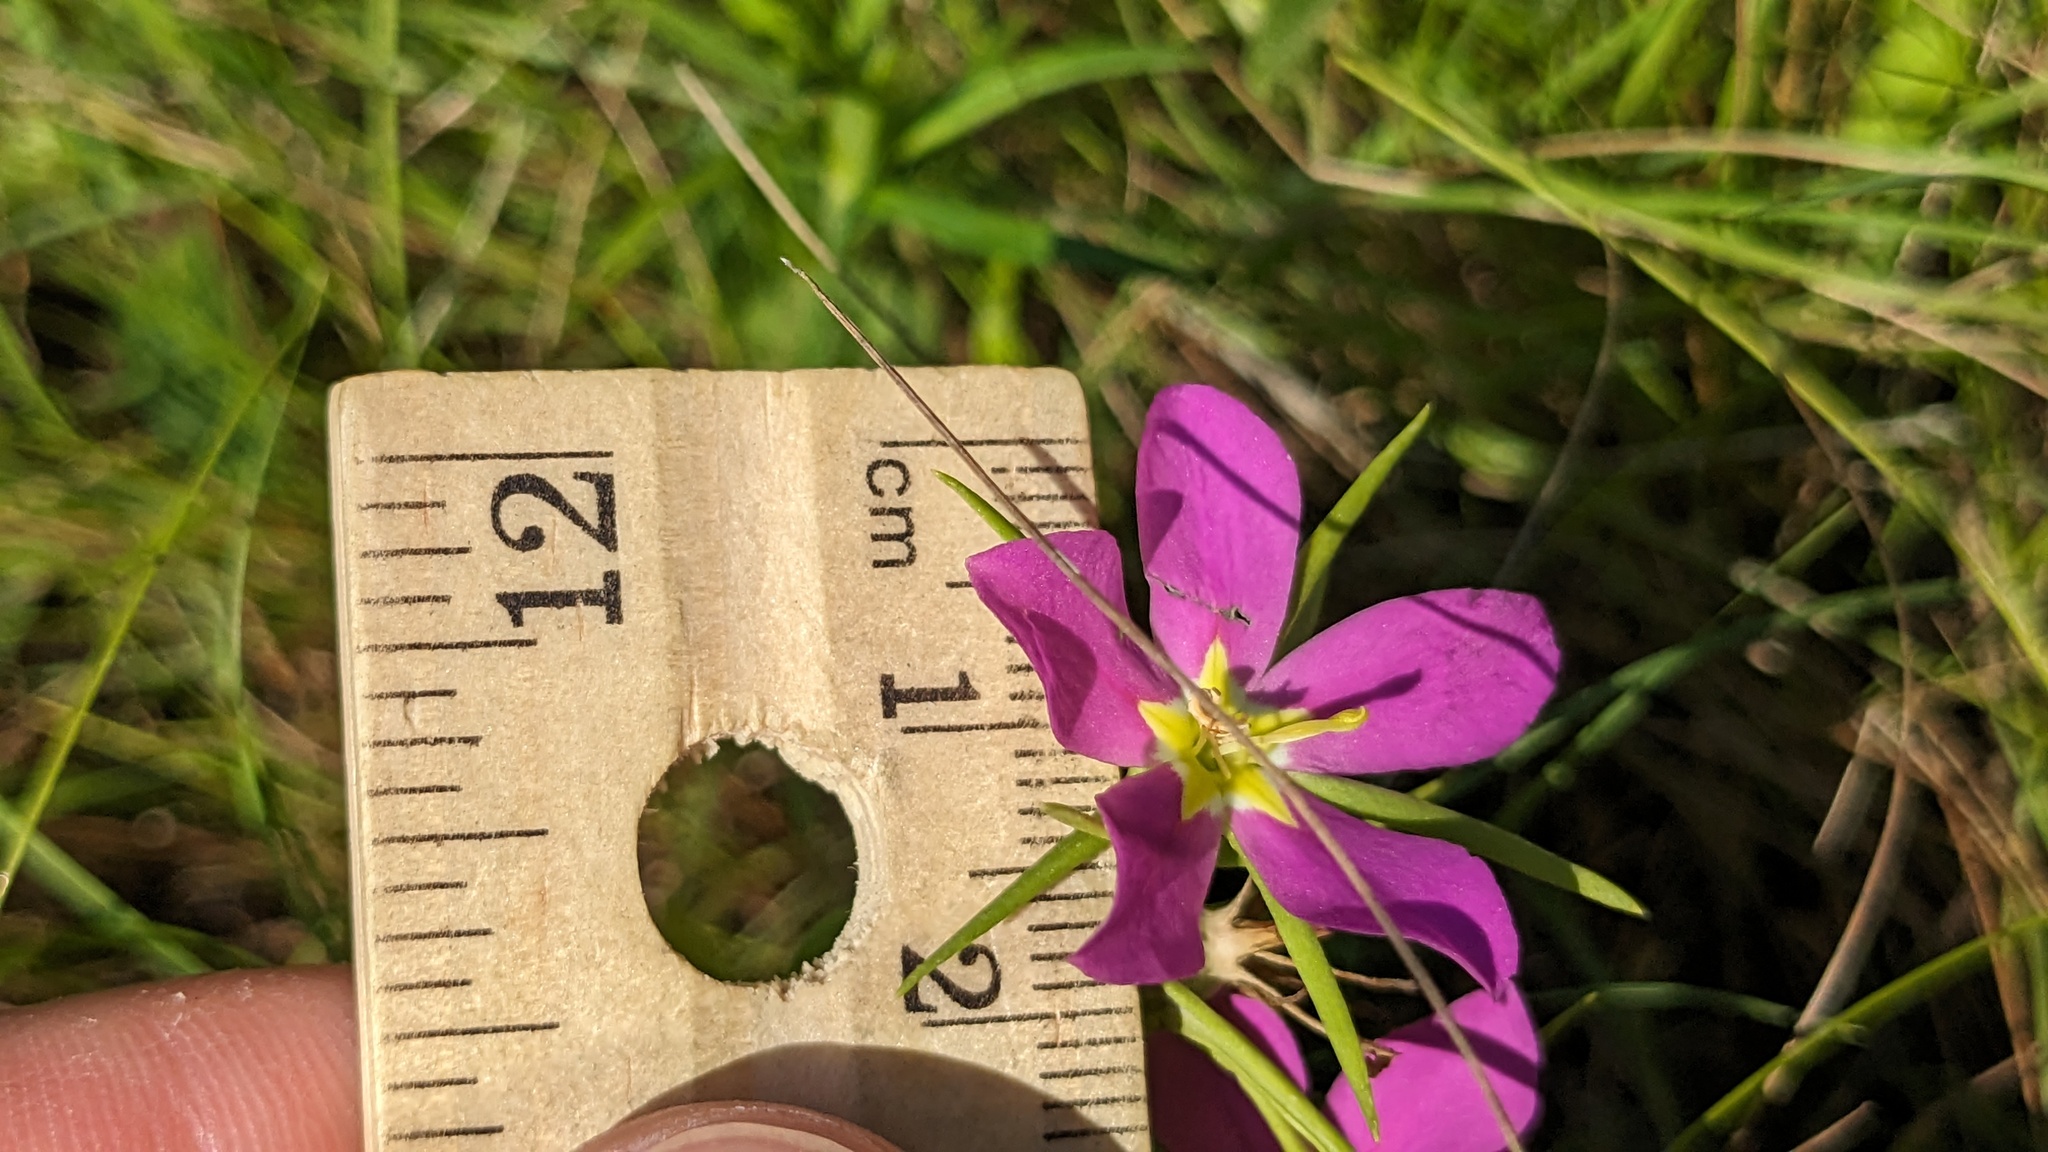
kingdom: Plantae
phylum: Tracheophyta
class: Magnoliopsida
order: Gentianales
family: Gentianaceae
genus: Sabatia
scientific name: Sabatia arkansana
